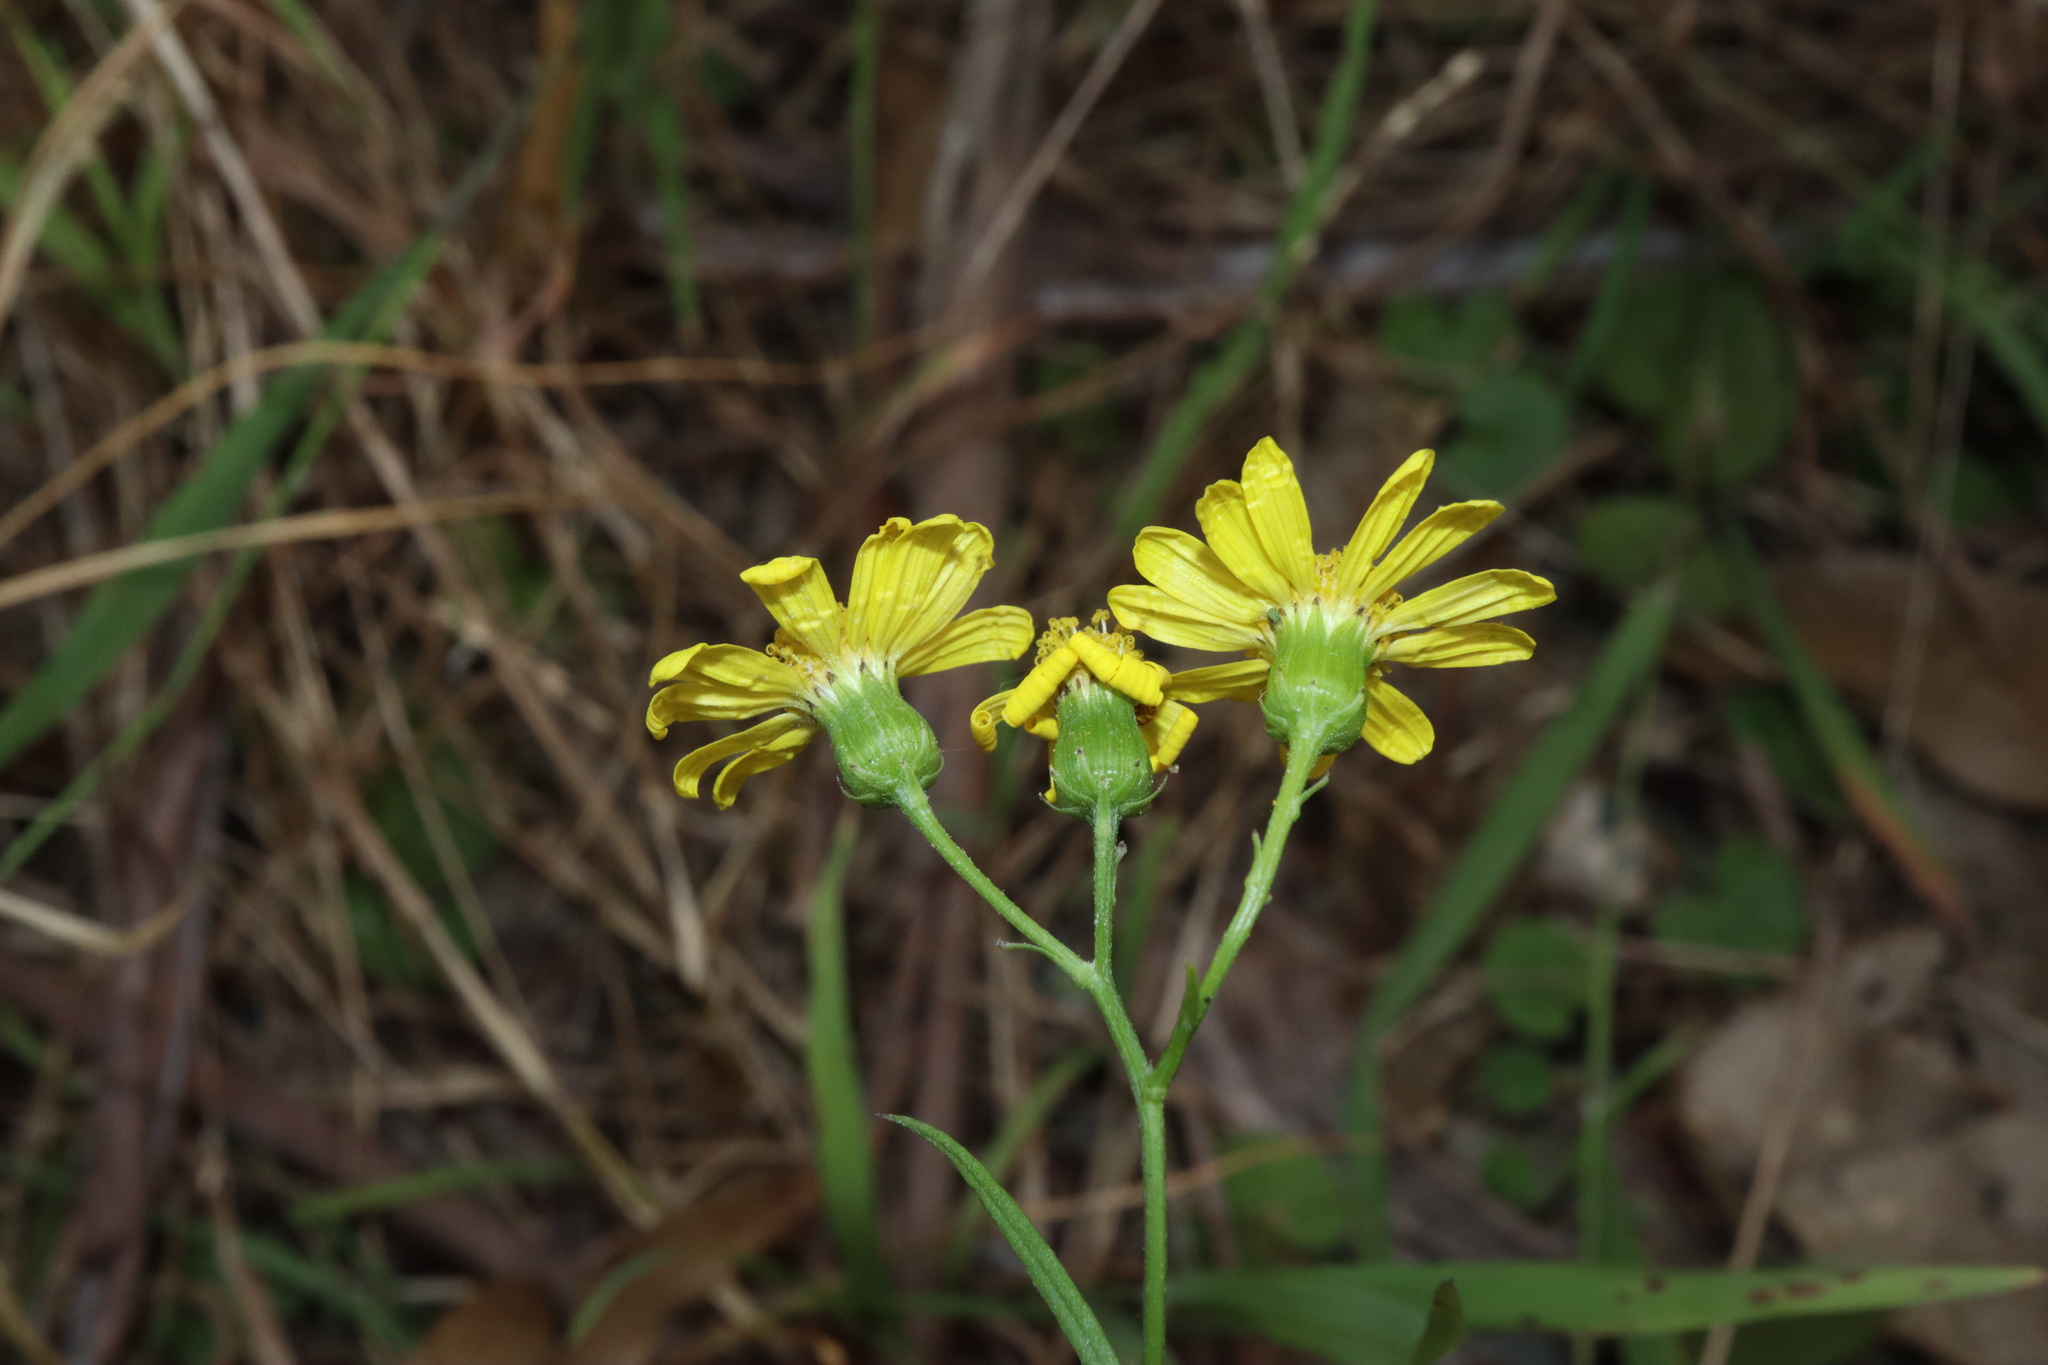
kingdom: Plantae
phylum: Tracheophyta
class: Magnoliopsida
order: Asterales
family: Asteraceae
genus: Senecio
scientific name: Senecio madagascariensis
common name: Madagascar ragwort
